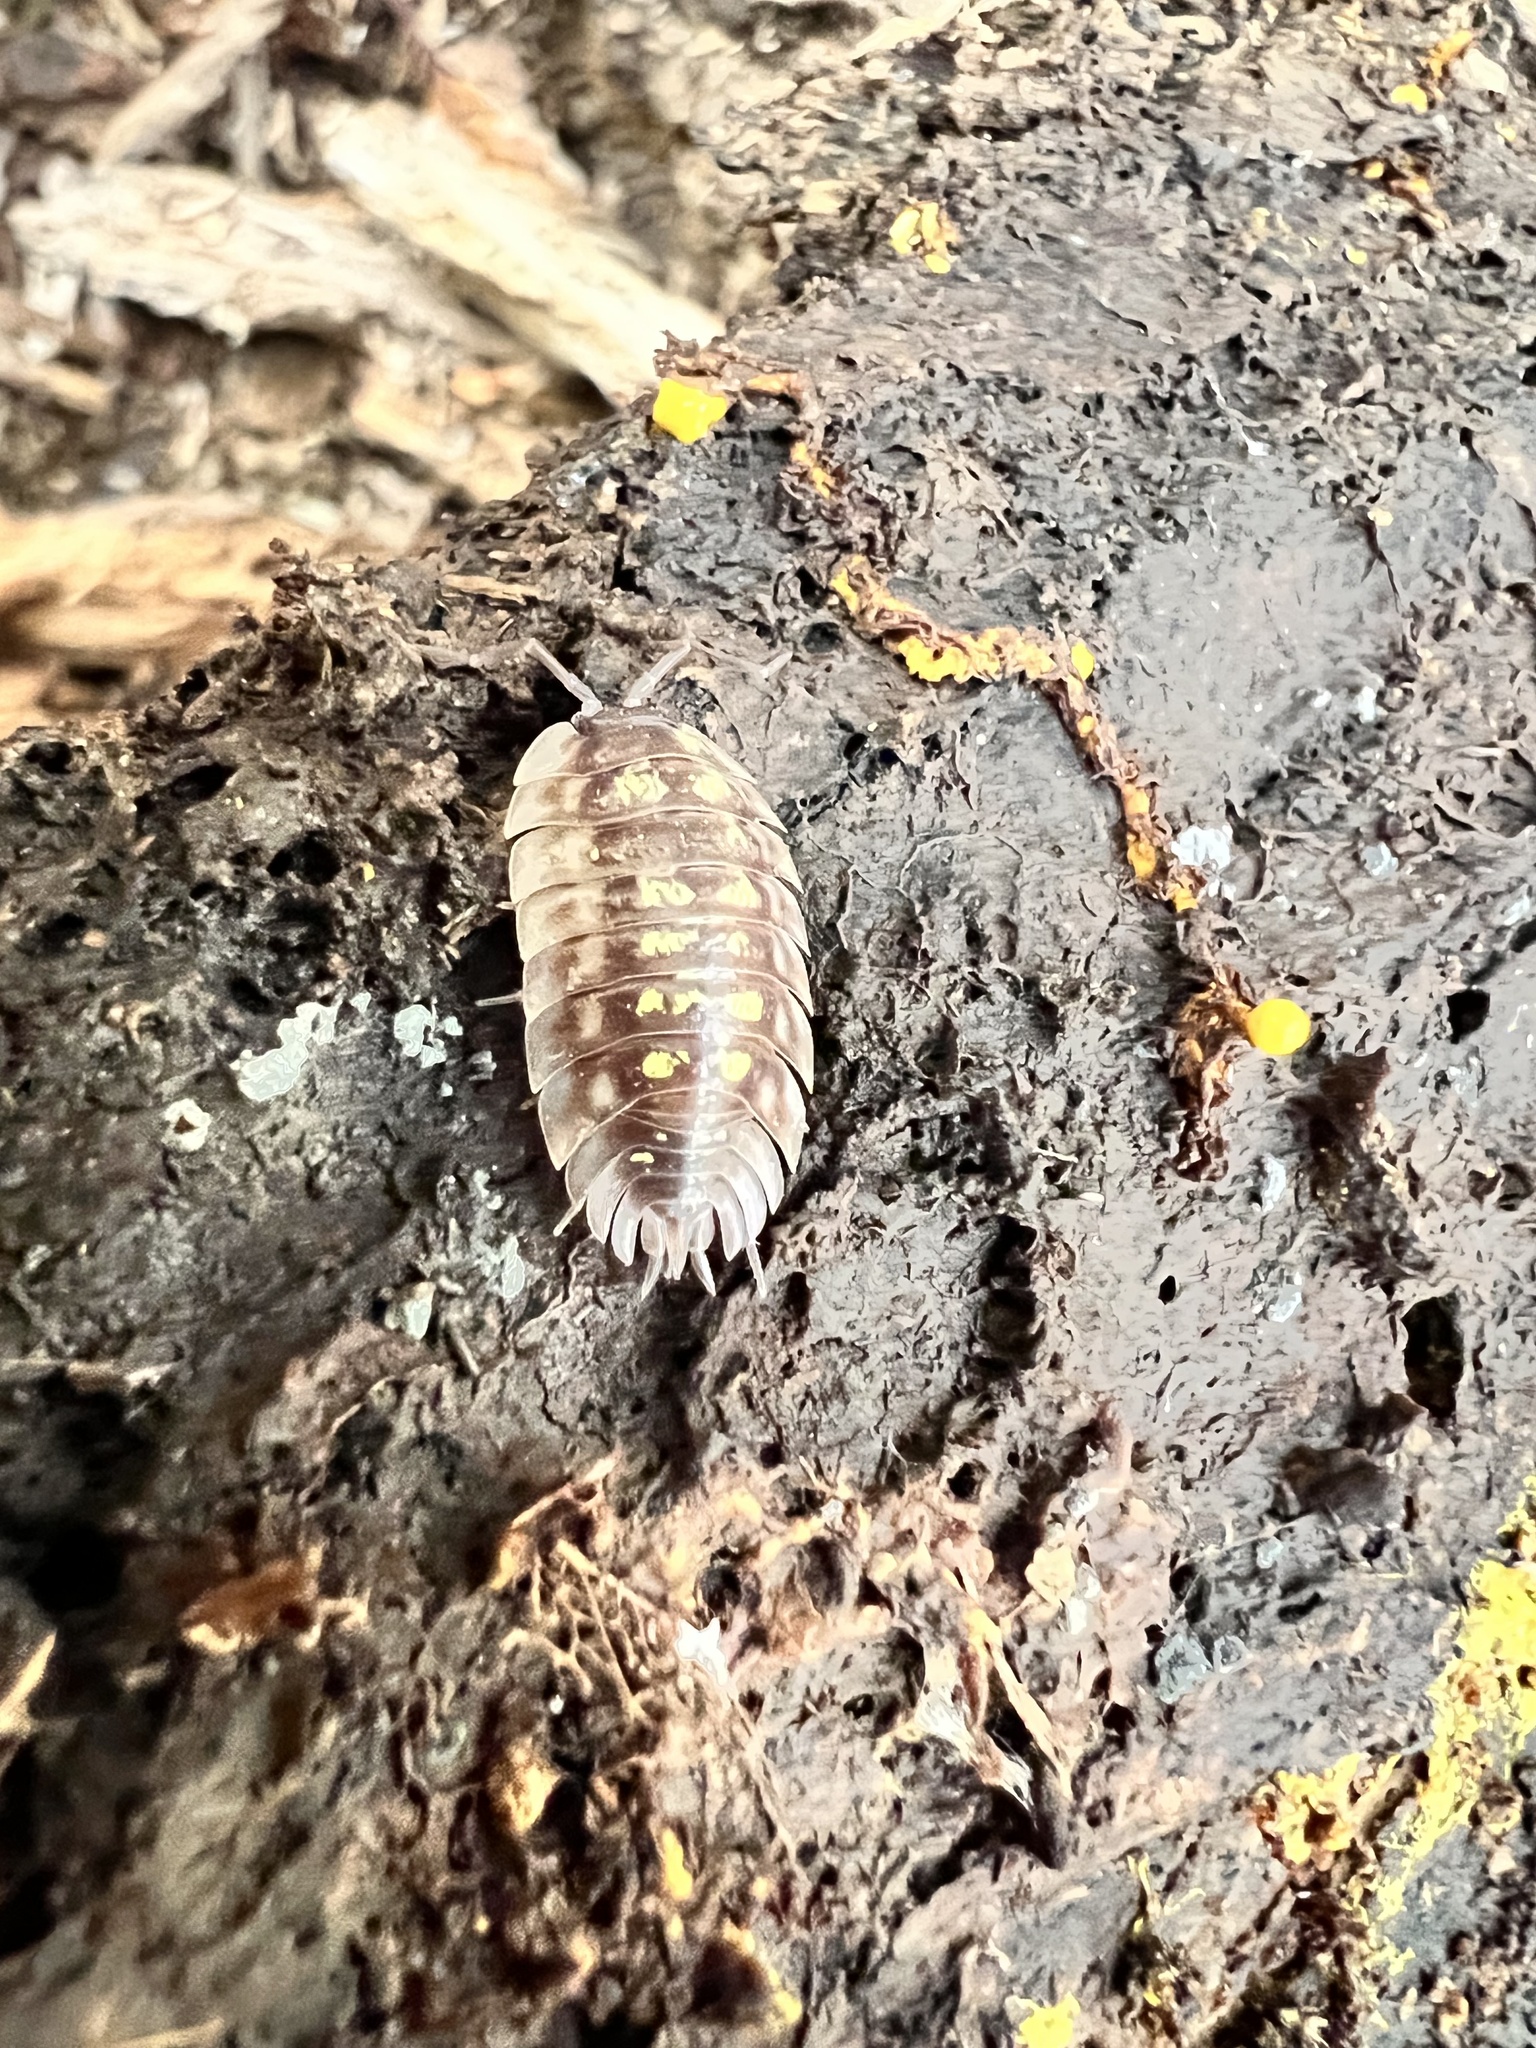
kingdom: Animalia
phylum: Arthropoda
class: Malacostraca
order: Isopoda
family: Oniscidae
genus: Oniscus
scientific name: Oniscus asellus
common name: Common shiny woodlouse
